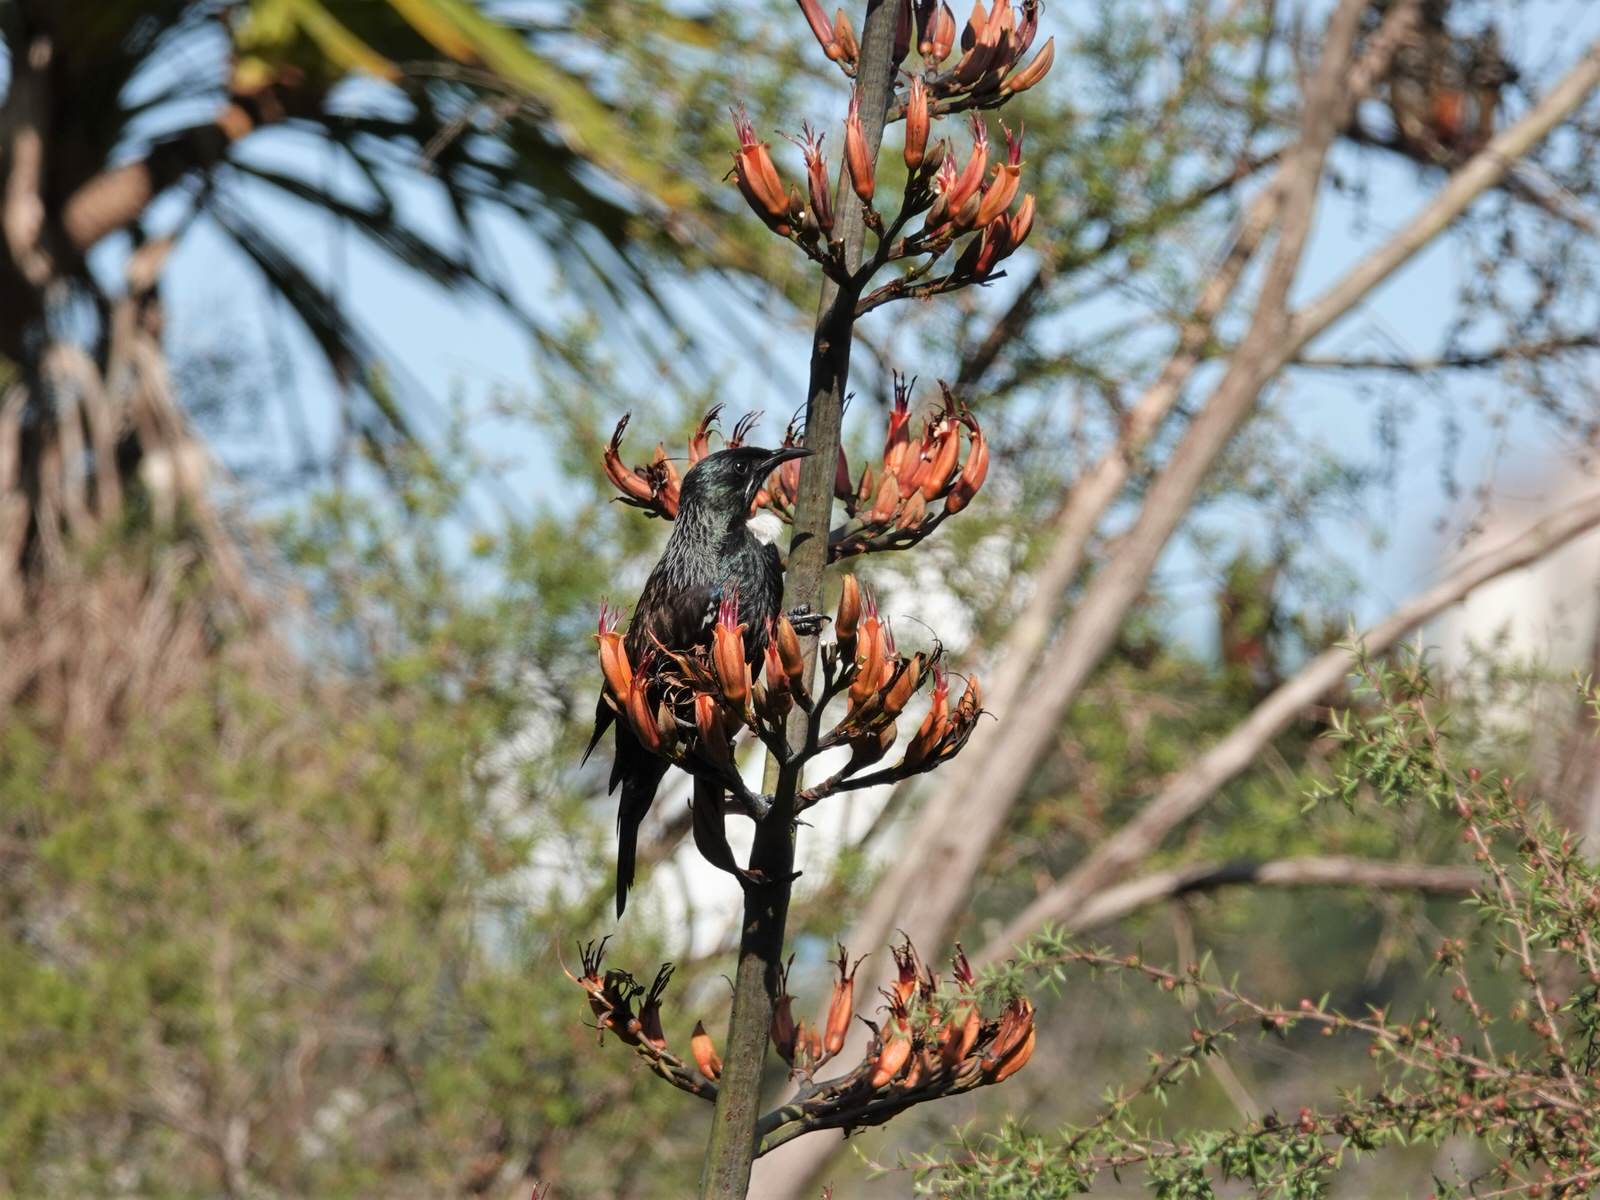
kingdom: Animalia
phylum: Chordata
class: Aves
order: Passeriformes
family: Meliphagidae
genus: Prosthemadera
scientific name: Prosthemadera novaeseelandiae
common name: Tui
